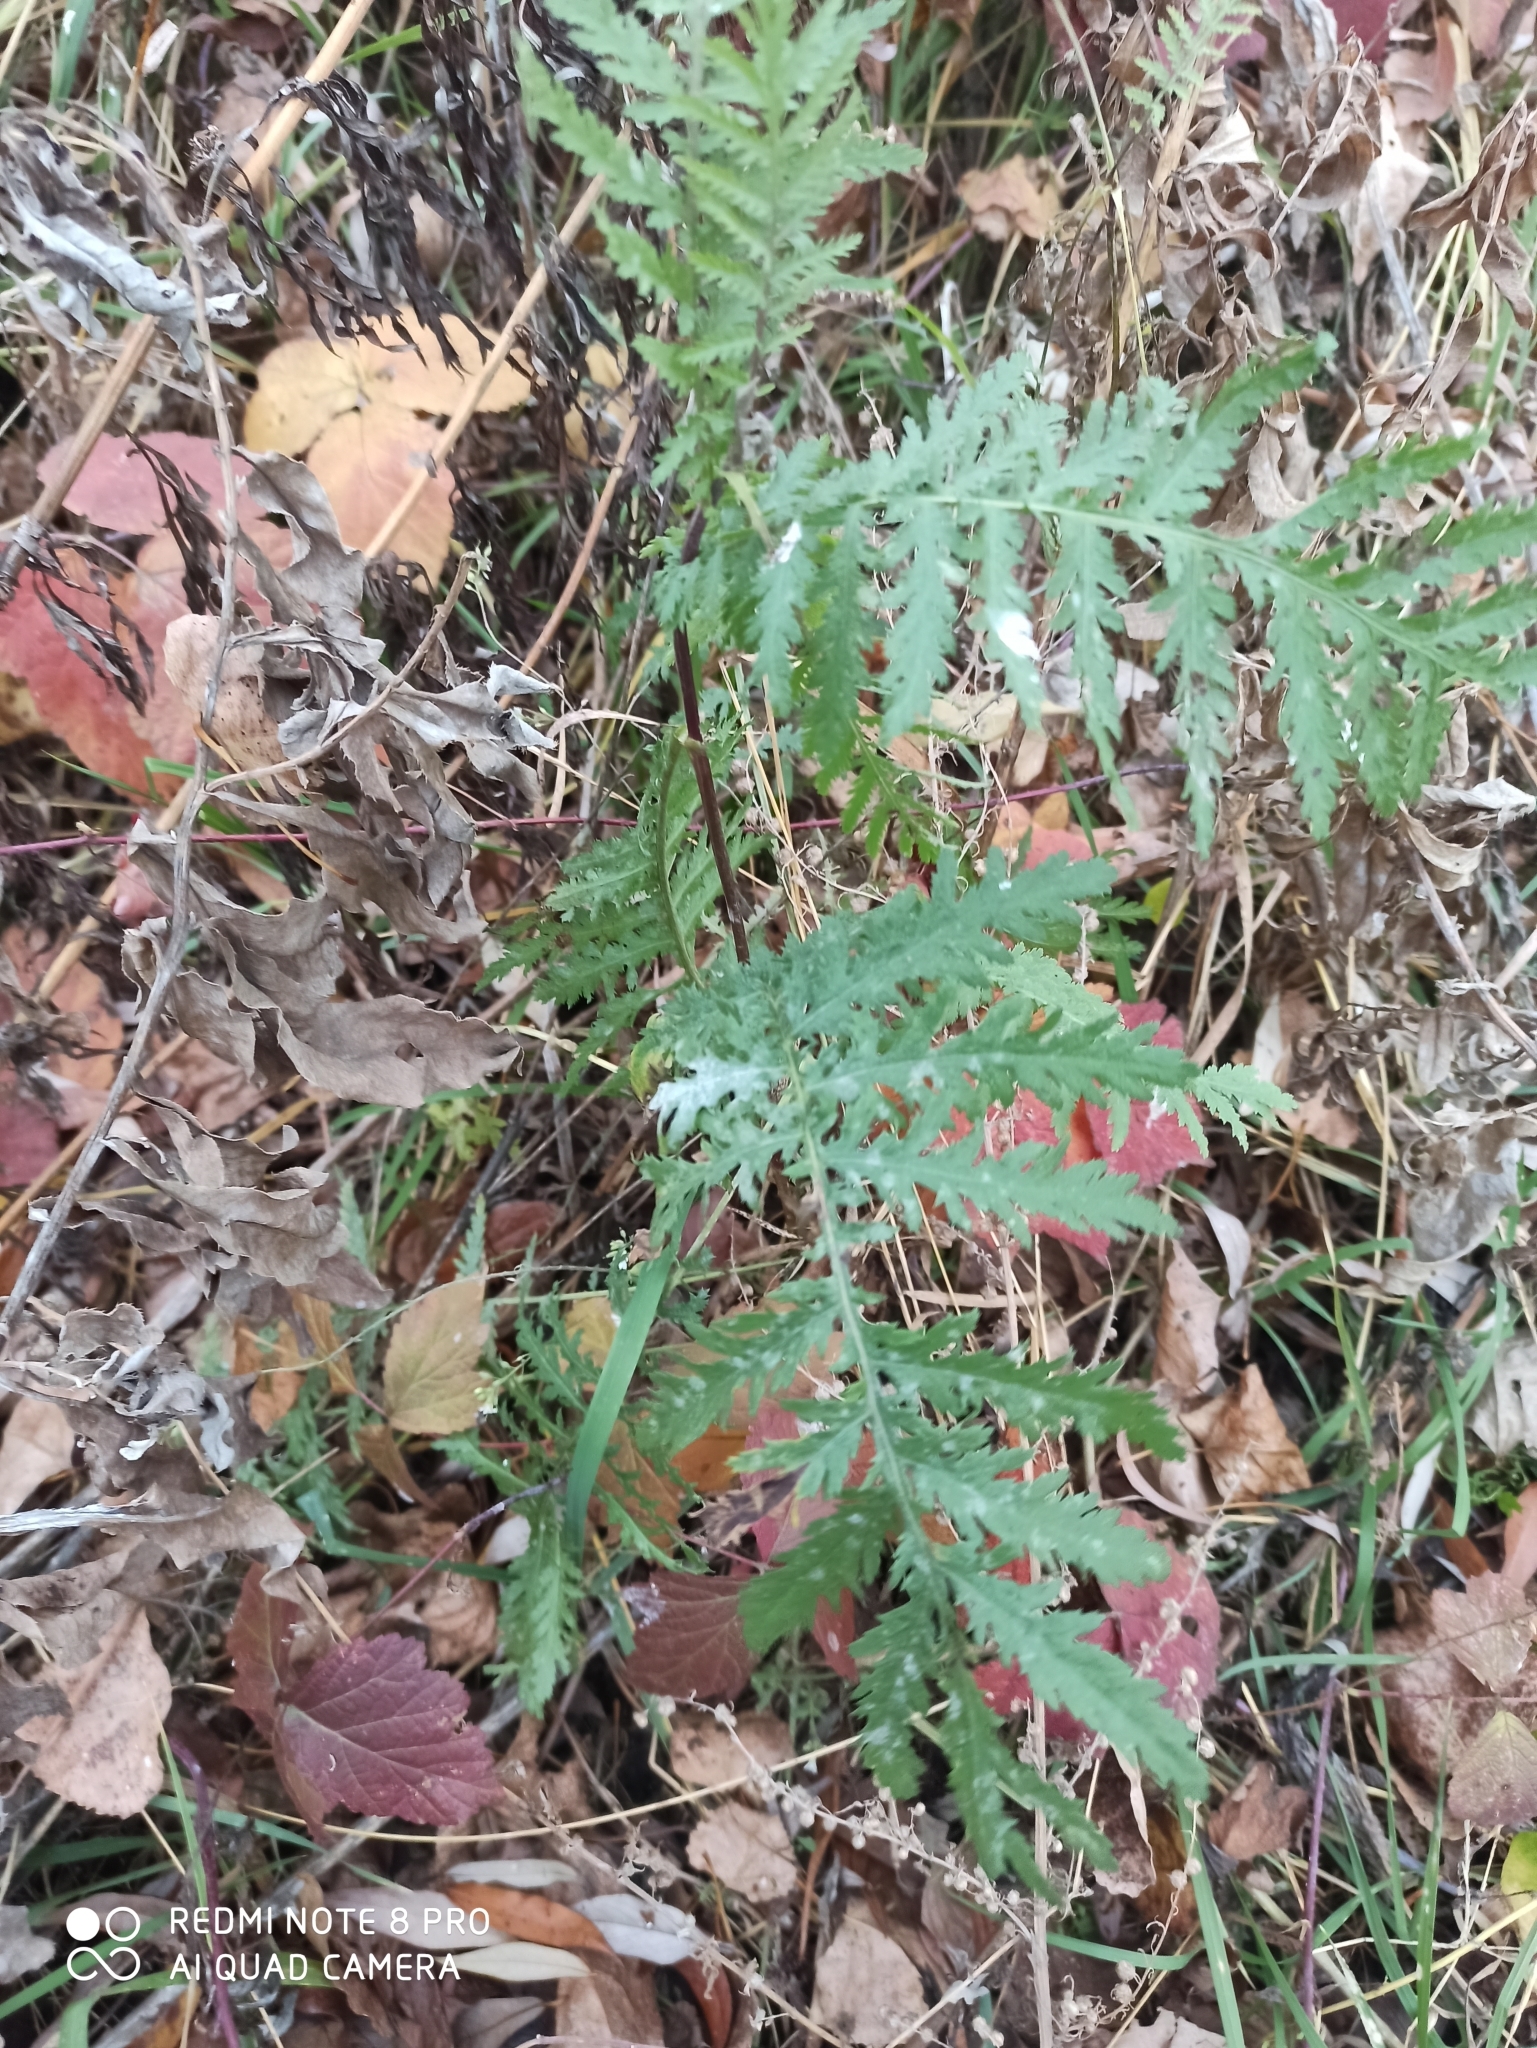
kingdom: Plantae
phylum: Tracheophyta
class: Magnoliopsida
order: Asterales
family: Asteraceae
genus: Tanacetum
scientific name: Tanacetum vulgare
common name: Common tansy
